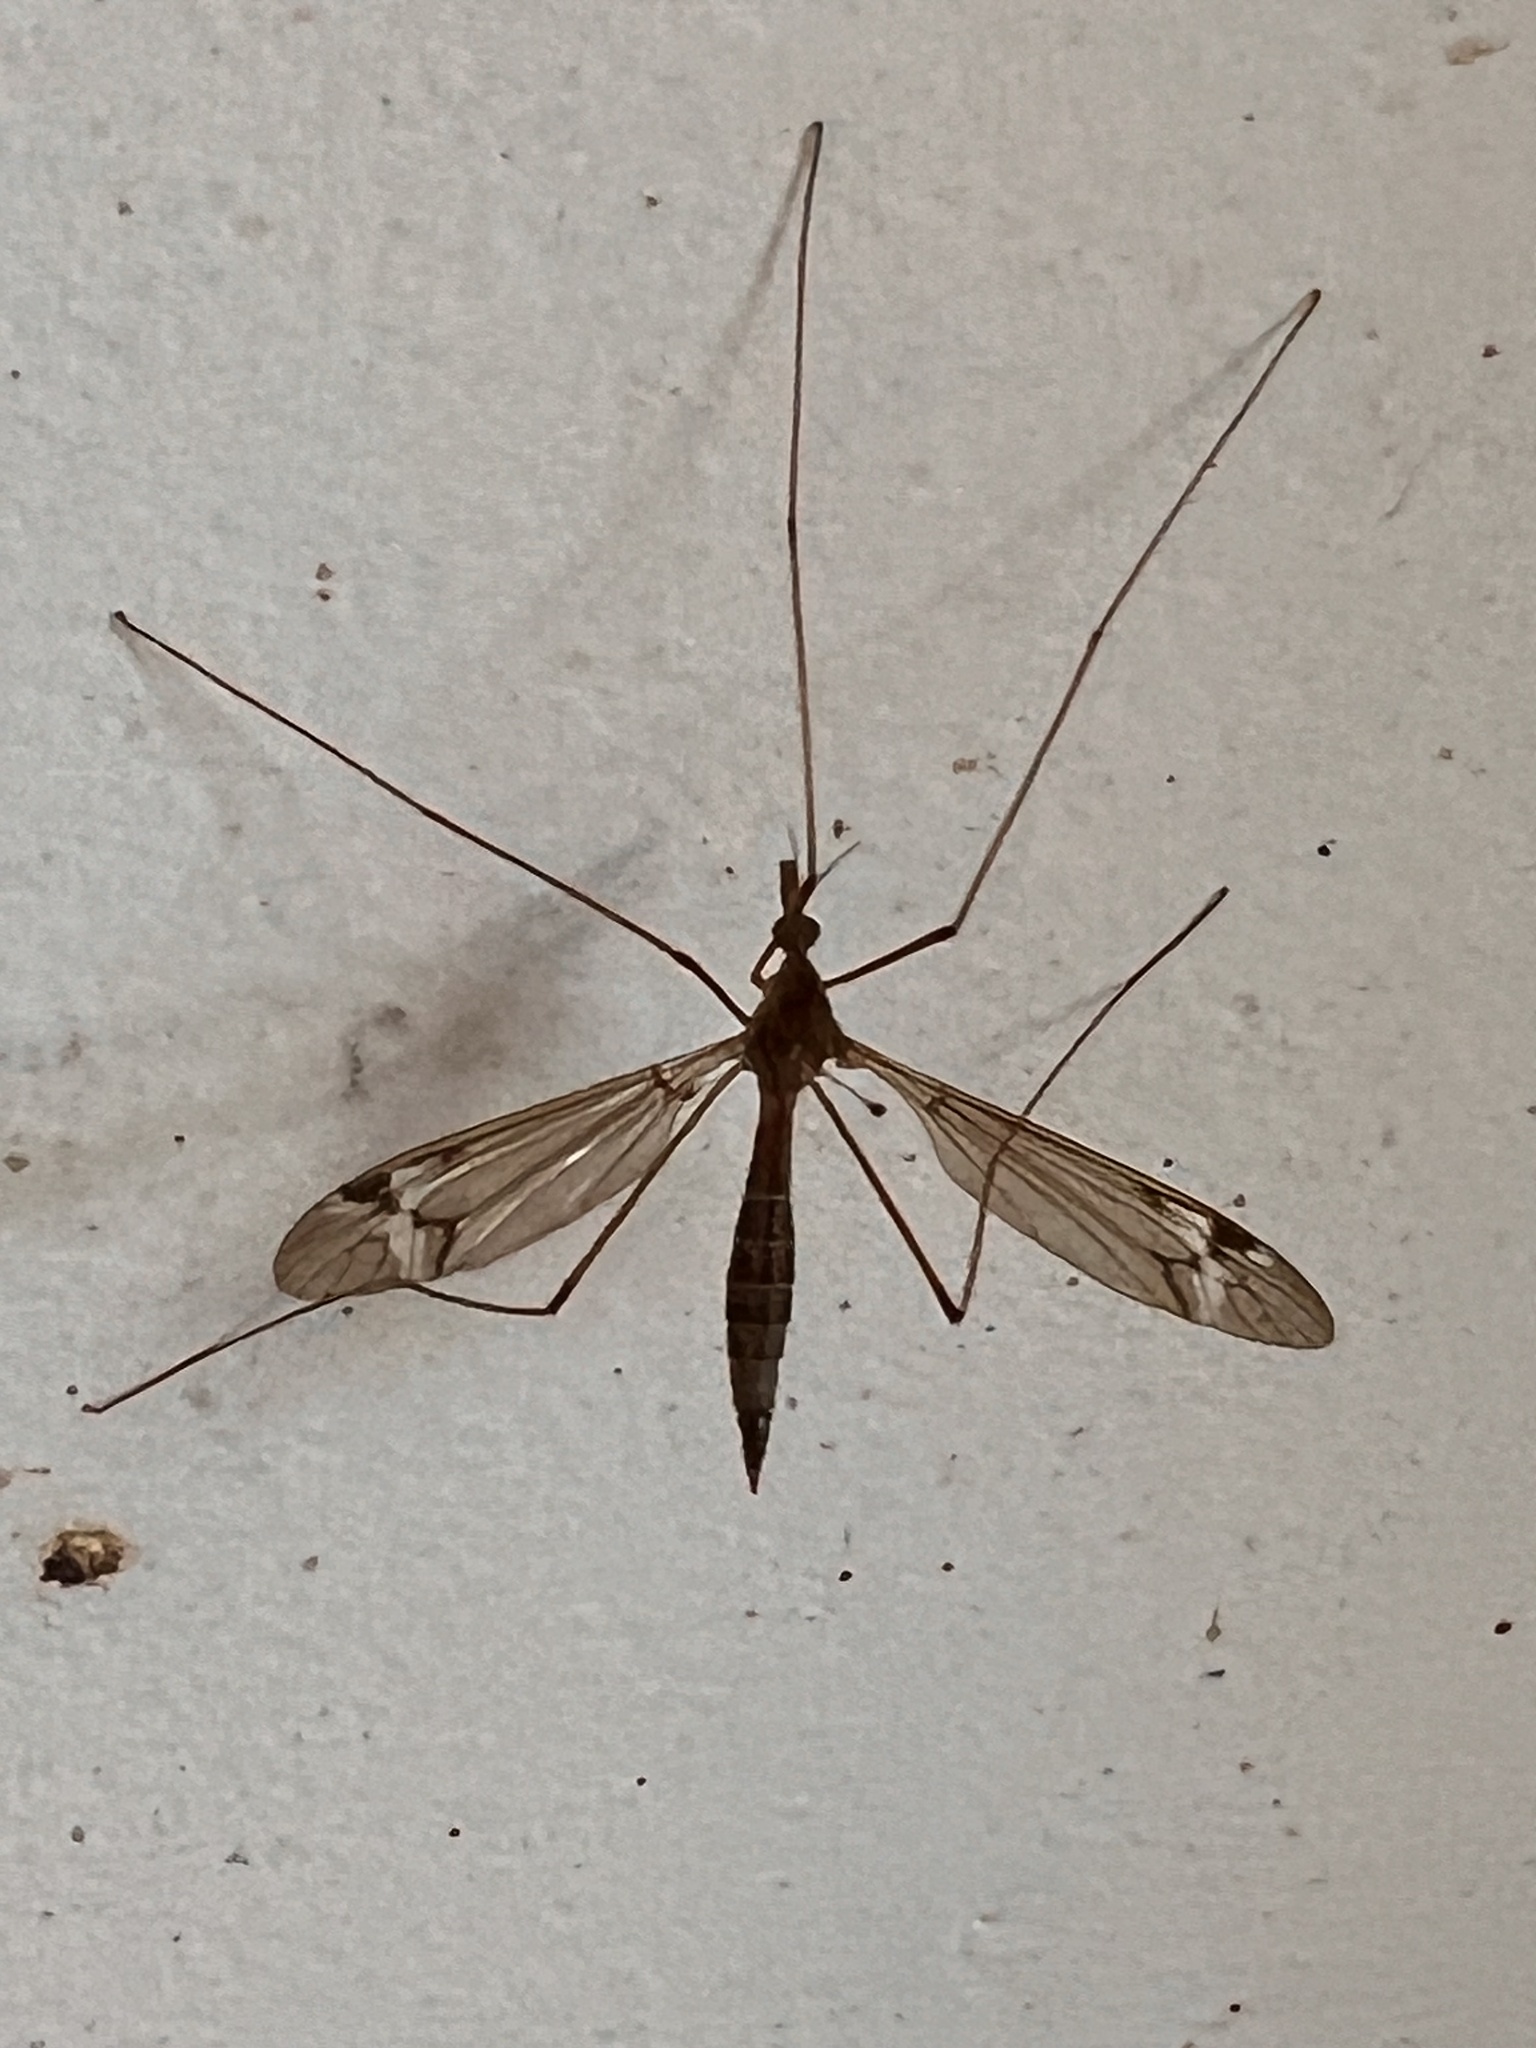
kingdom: Animalia
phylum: Arthropoda
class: Insecta
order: Diptera
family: Tipulidae
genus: Tipula
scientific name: Tipula
